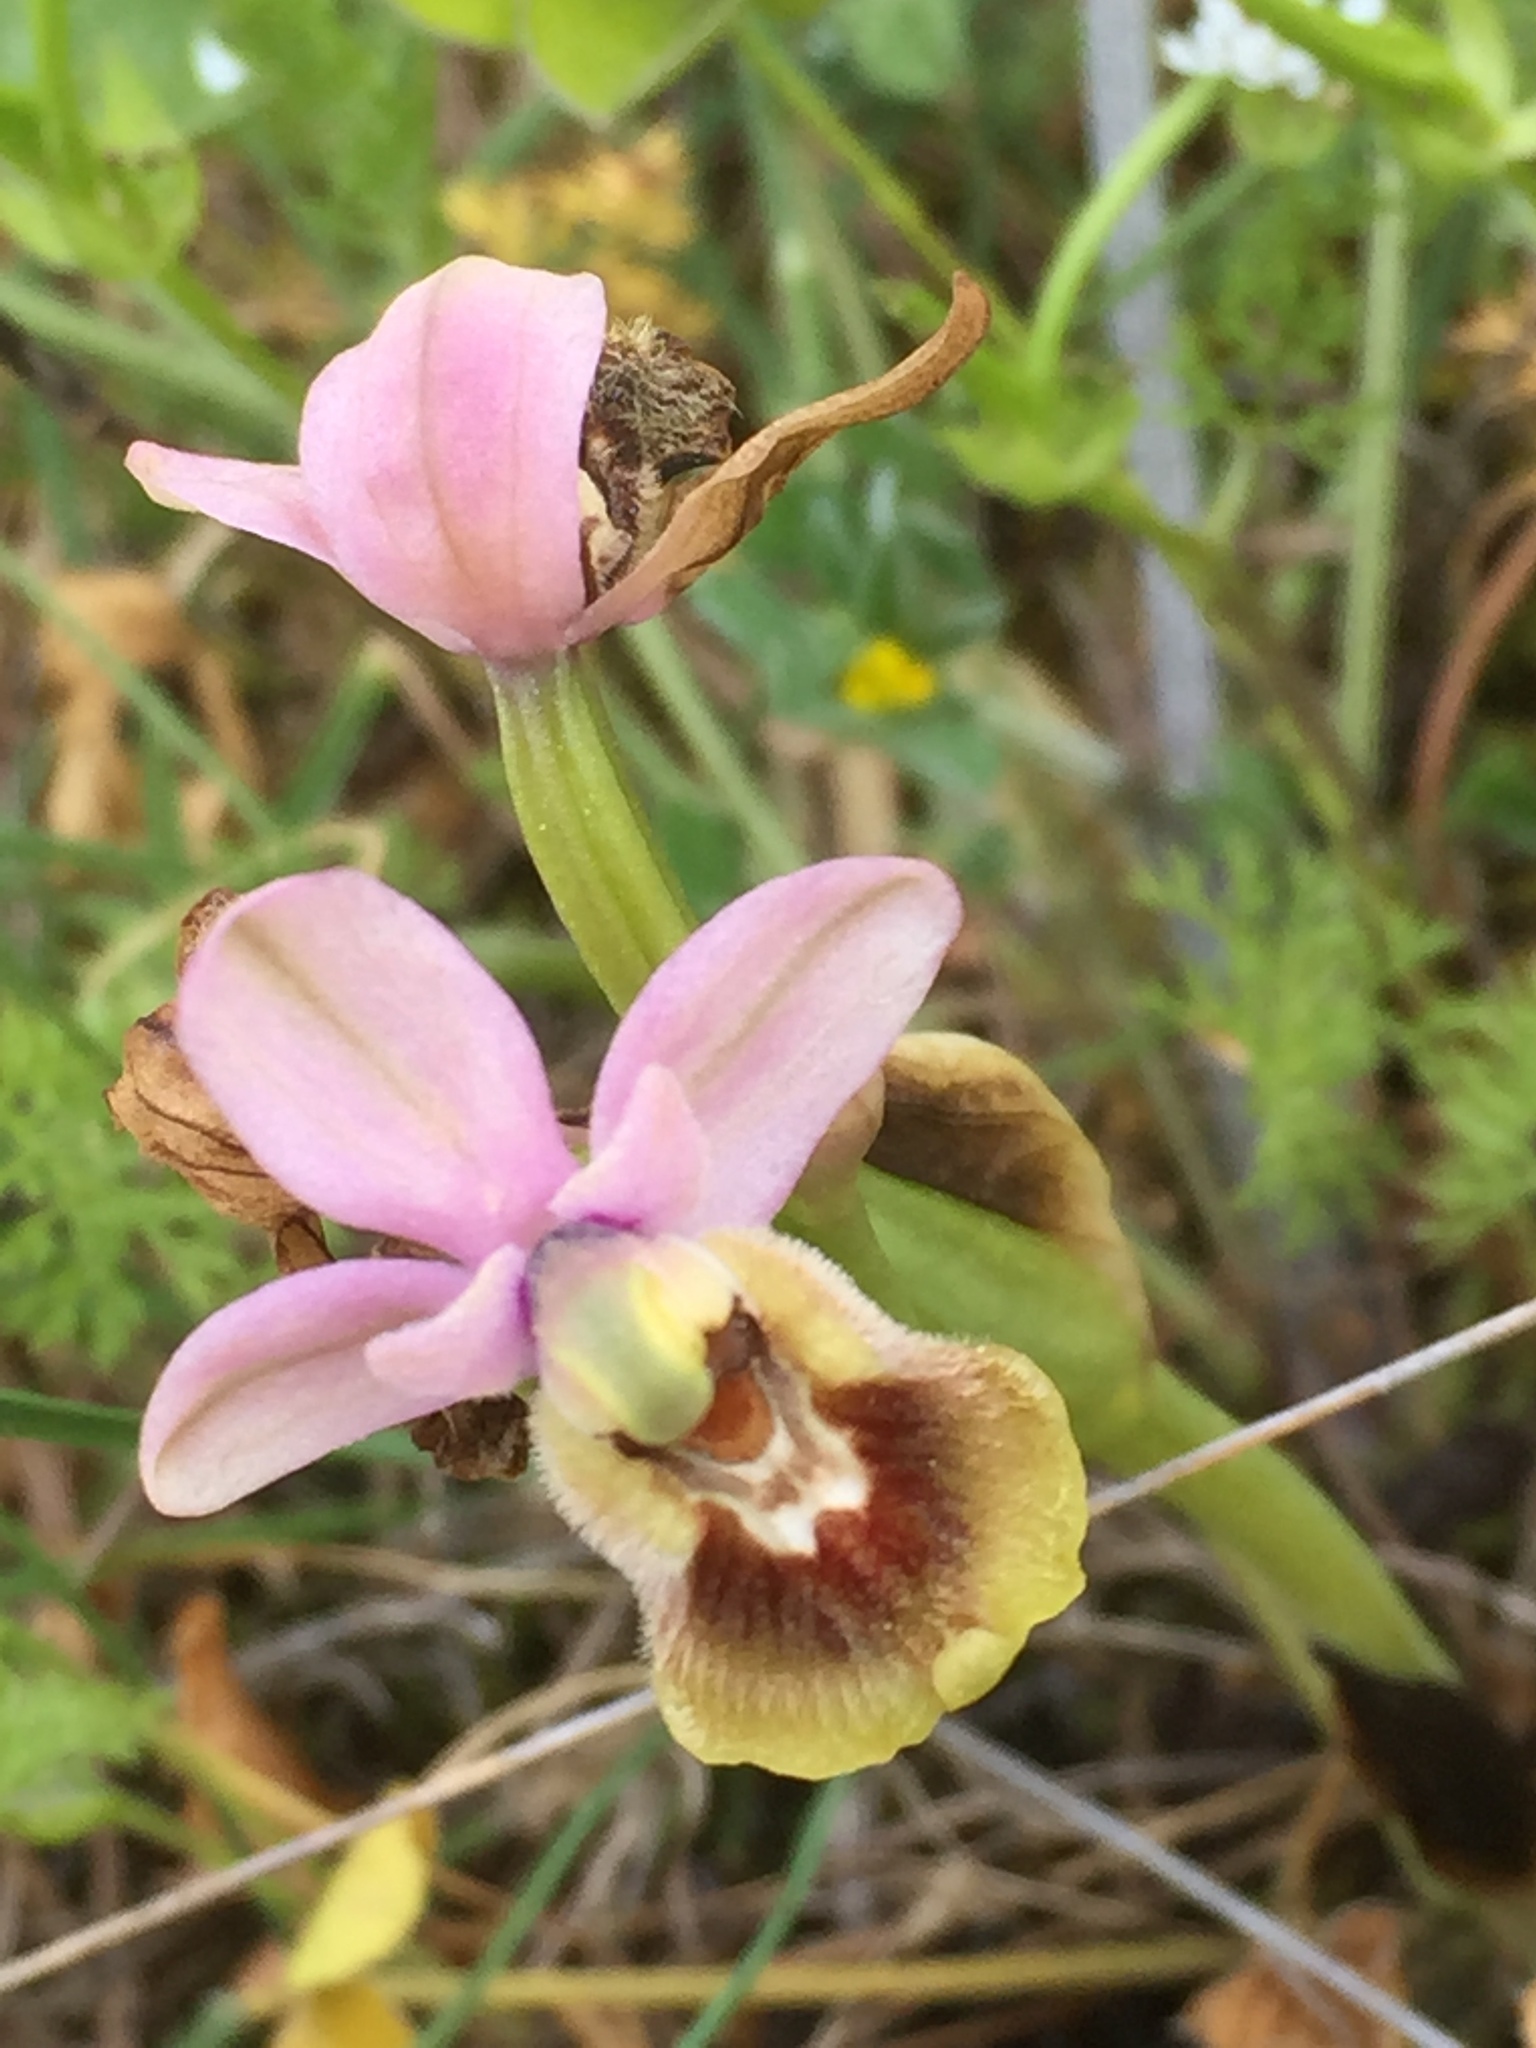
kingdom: Plantae
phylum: Tracheophyta
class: Liliopsida
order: Asparagales
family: Orchidaceae
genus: Ophrys
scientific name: Ophrys tenthredinifera
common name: Sawfly orchid
